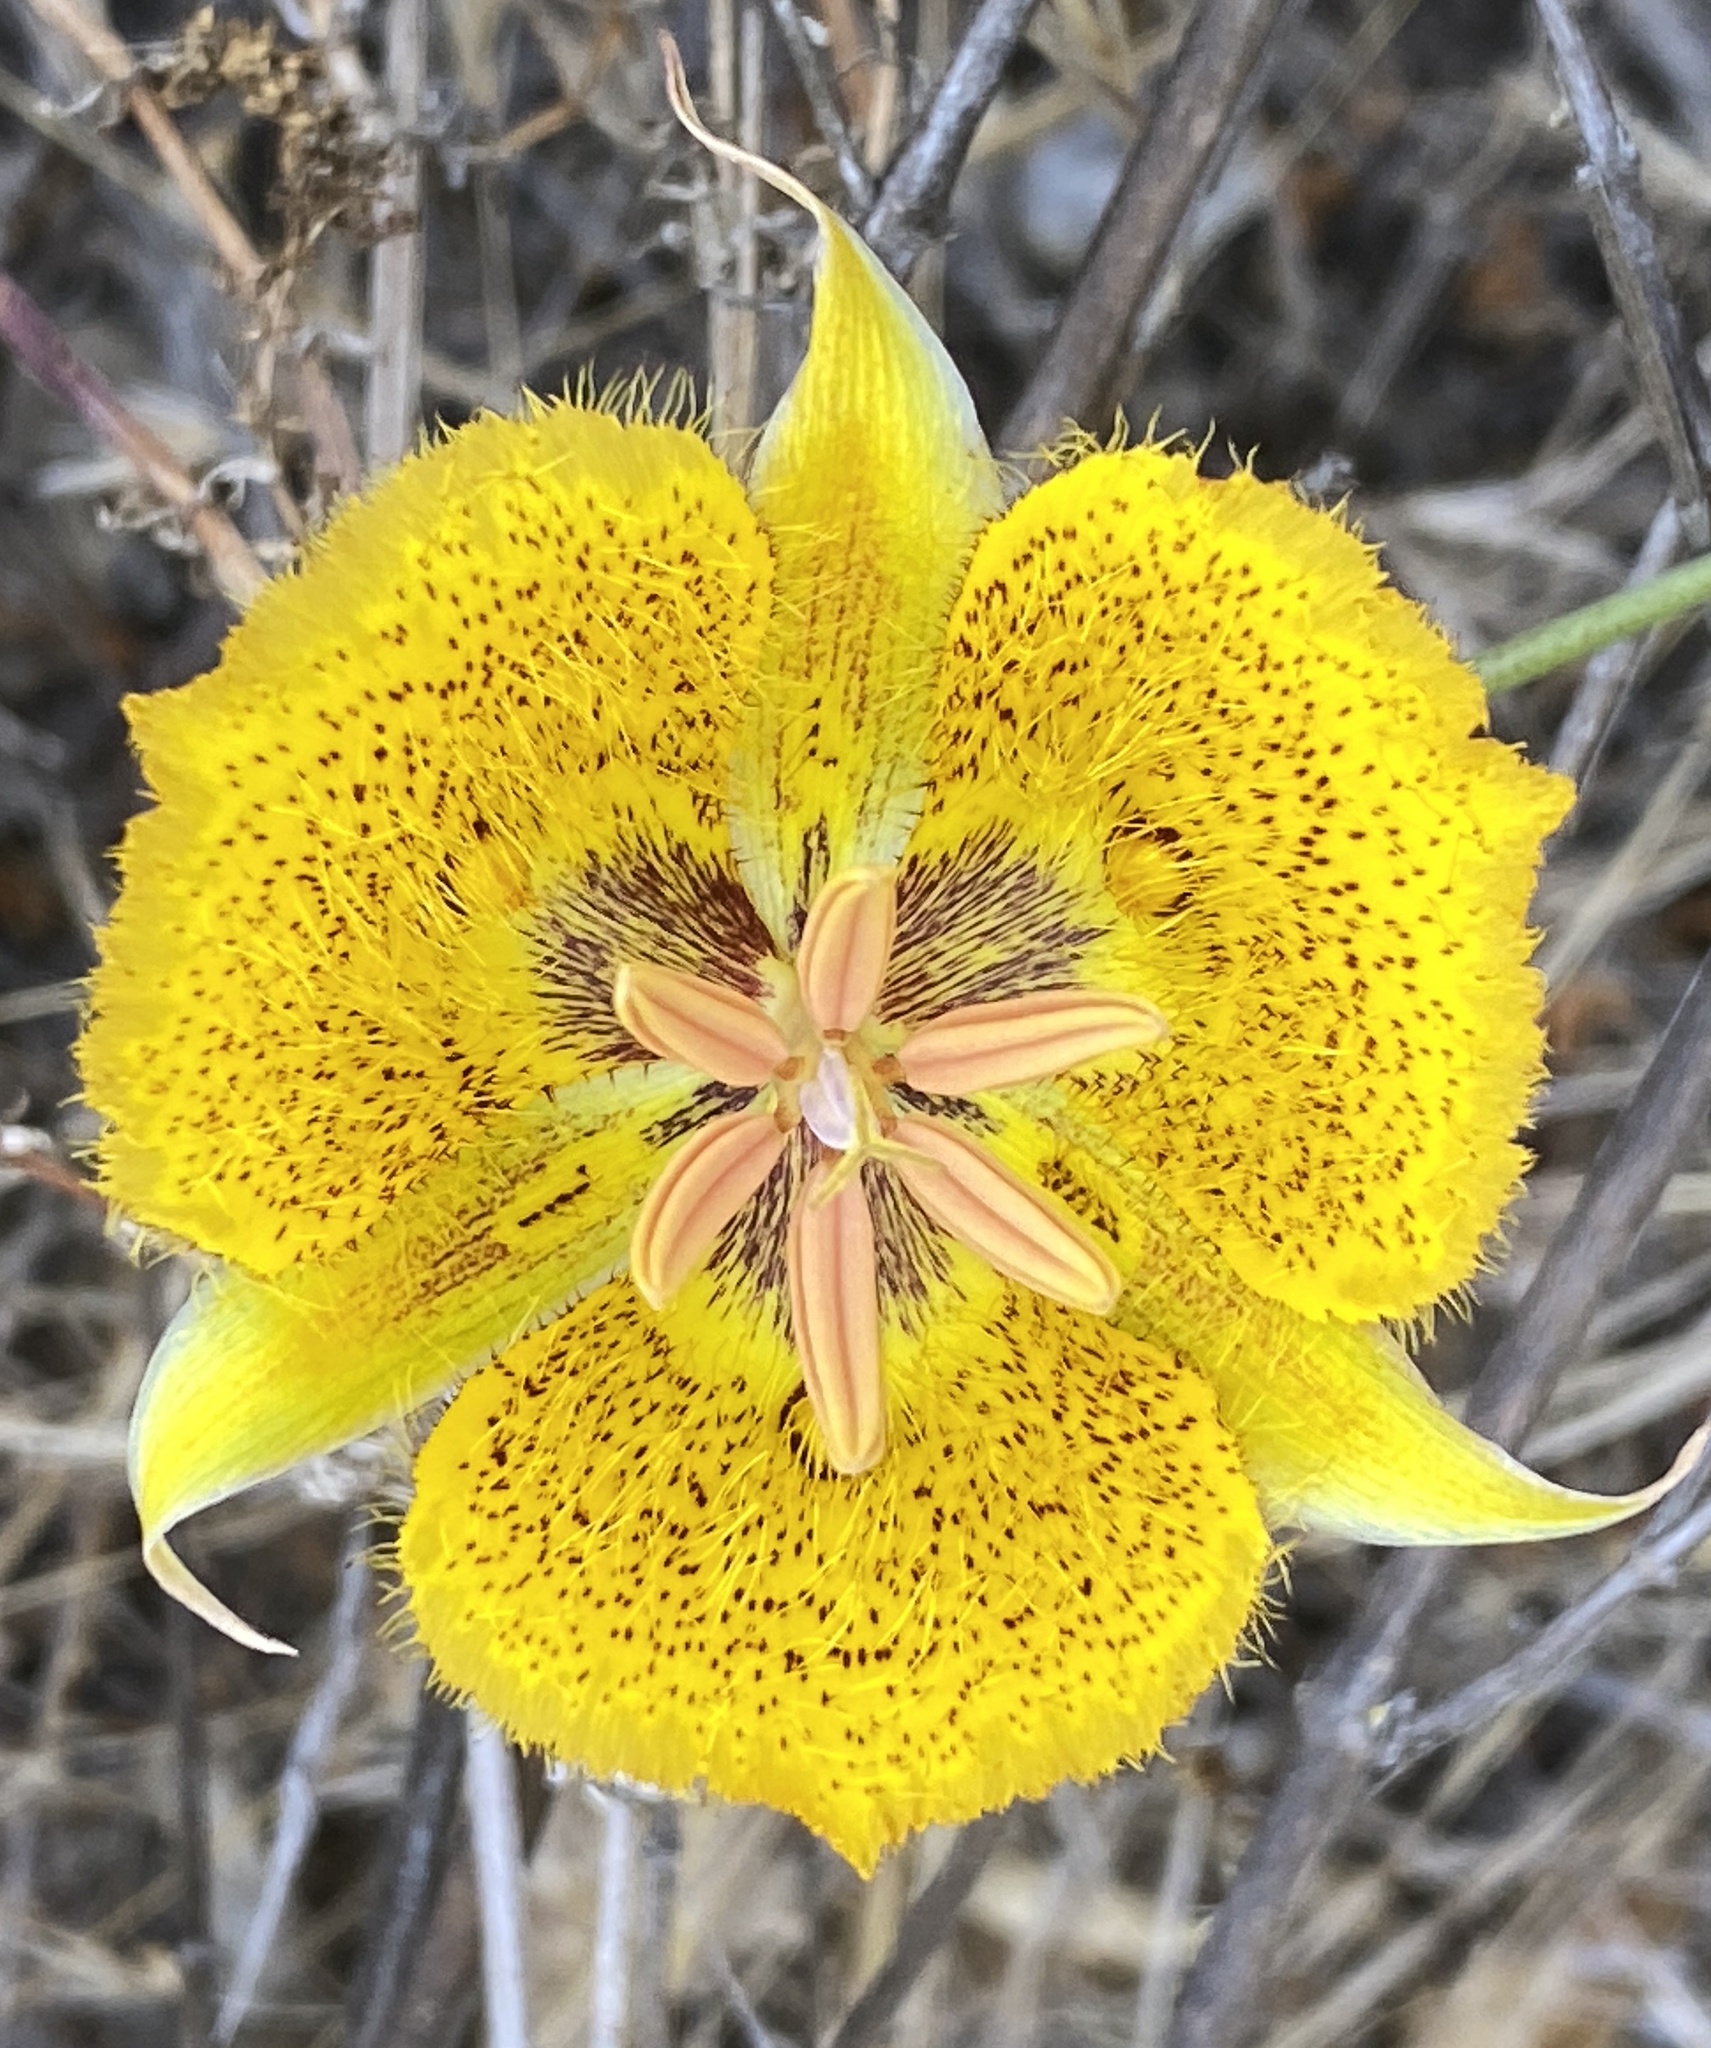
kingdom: Plantae
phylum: Tracheophyta
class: Liliopsida
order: Liliales
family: Liliaceae
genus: Calochortus
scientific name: Calochortus weedii
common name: Weed's mariposa-lily
